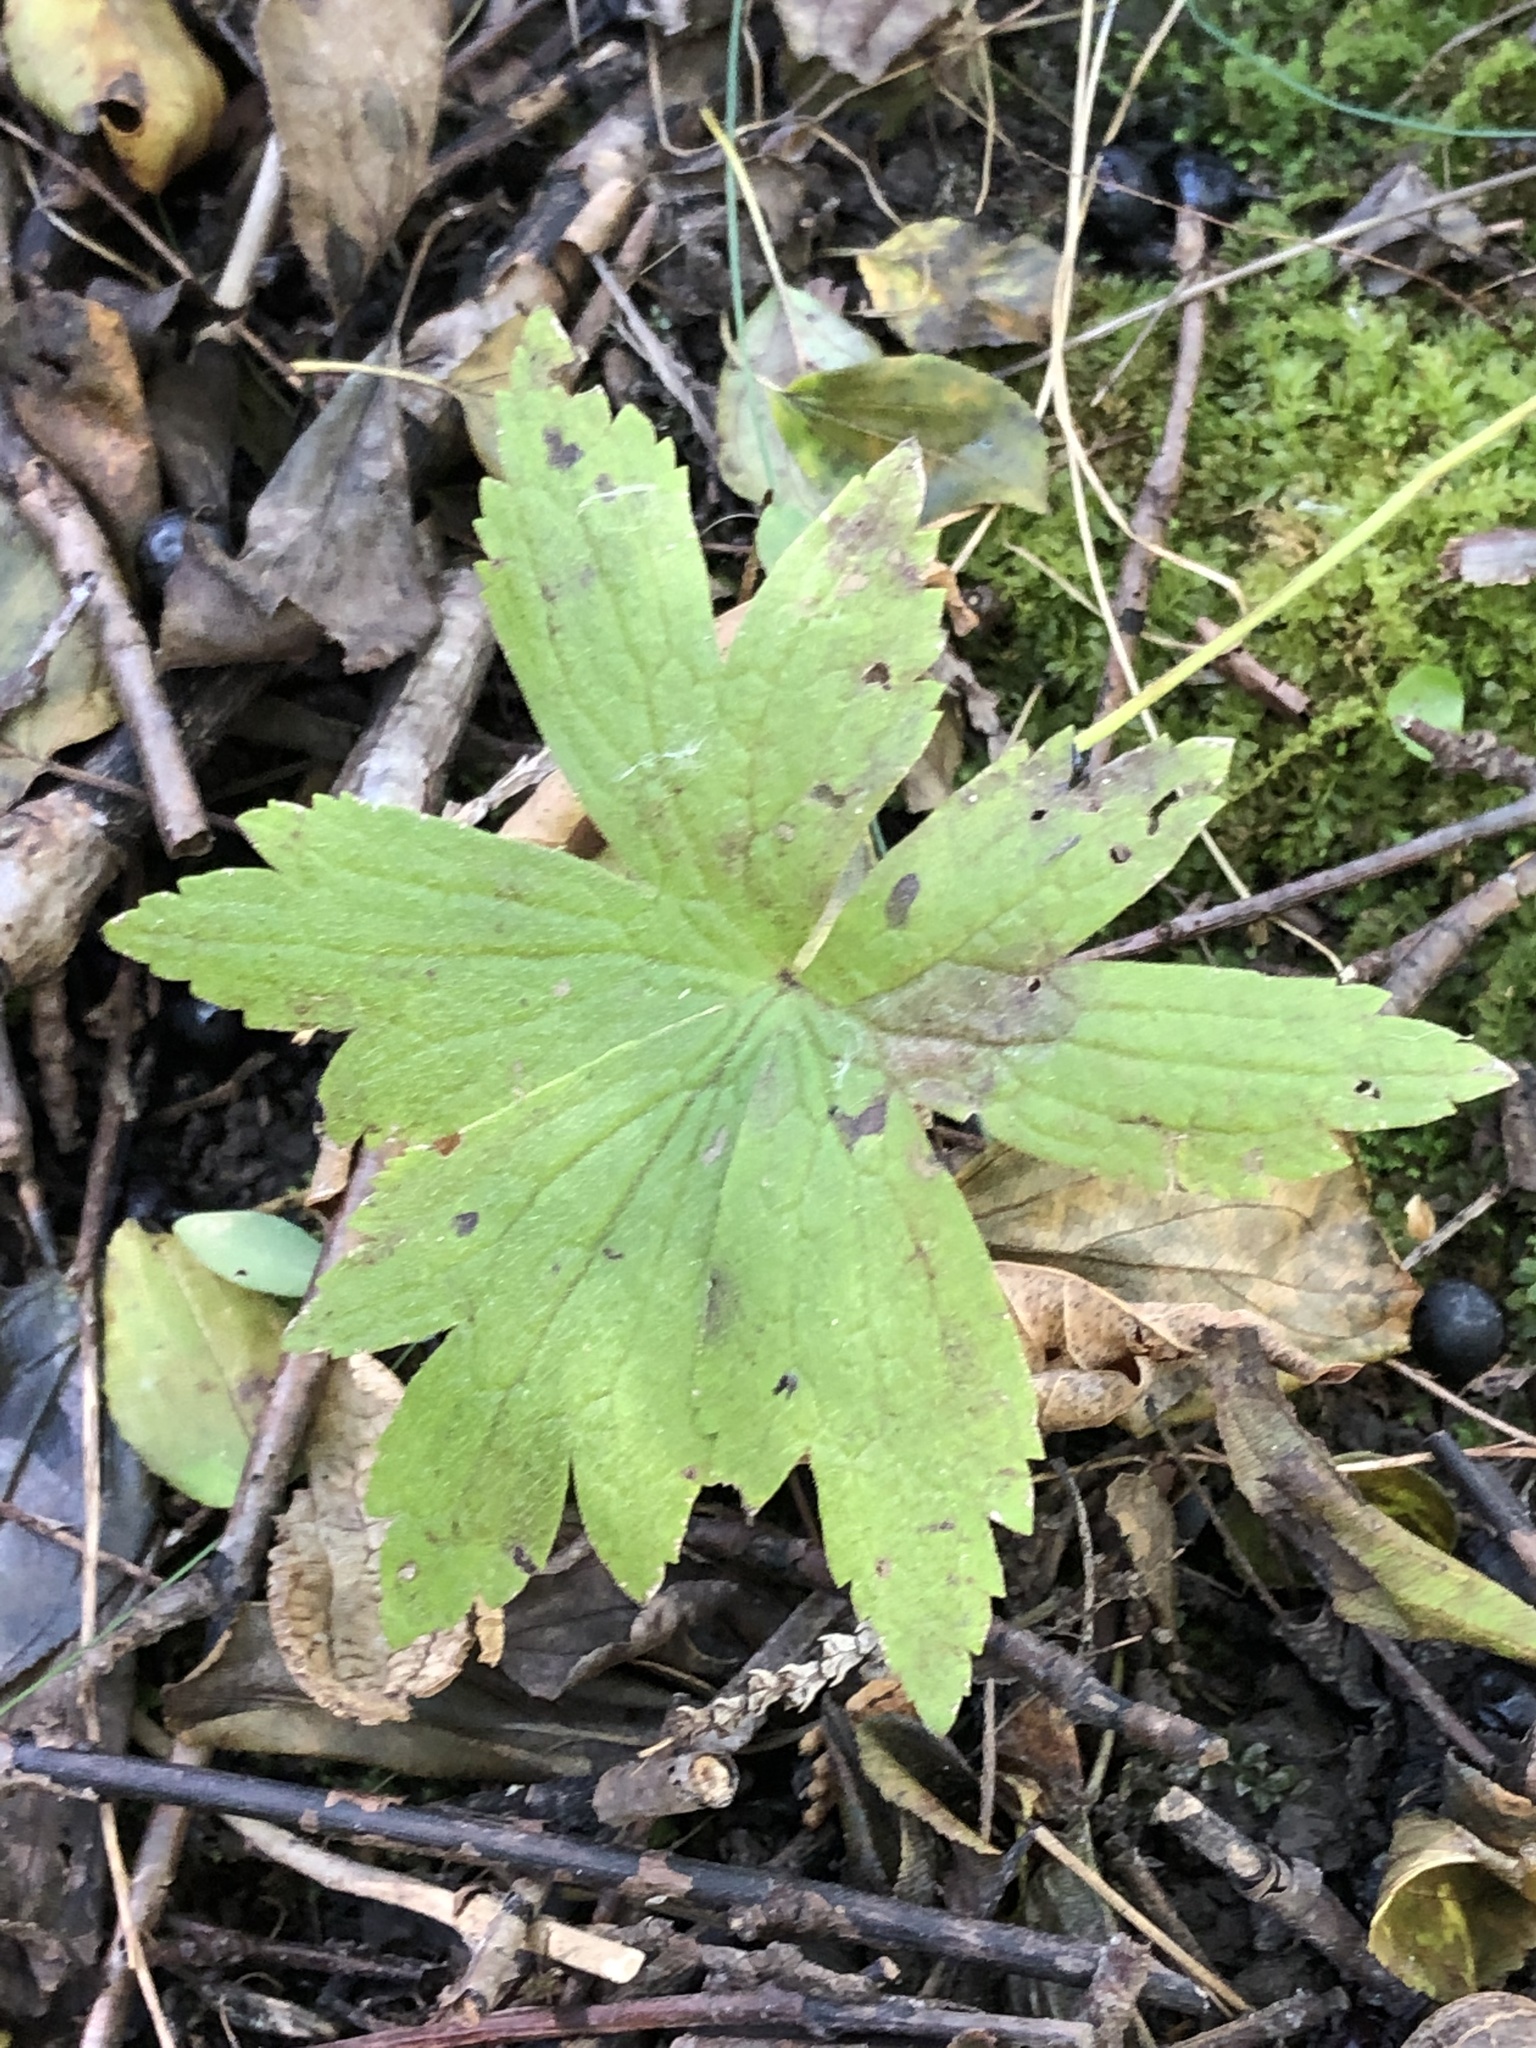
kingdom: Plantae
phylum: Tracheophyta
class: Magnoliopsida
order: Ranunculales
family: Ranunculaceae
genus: Anemonastrum
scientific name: Anemonastrum canadense
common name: Canada anemone
